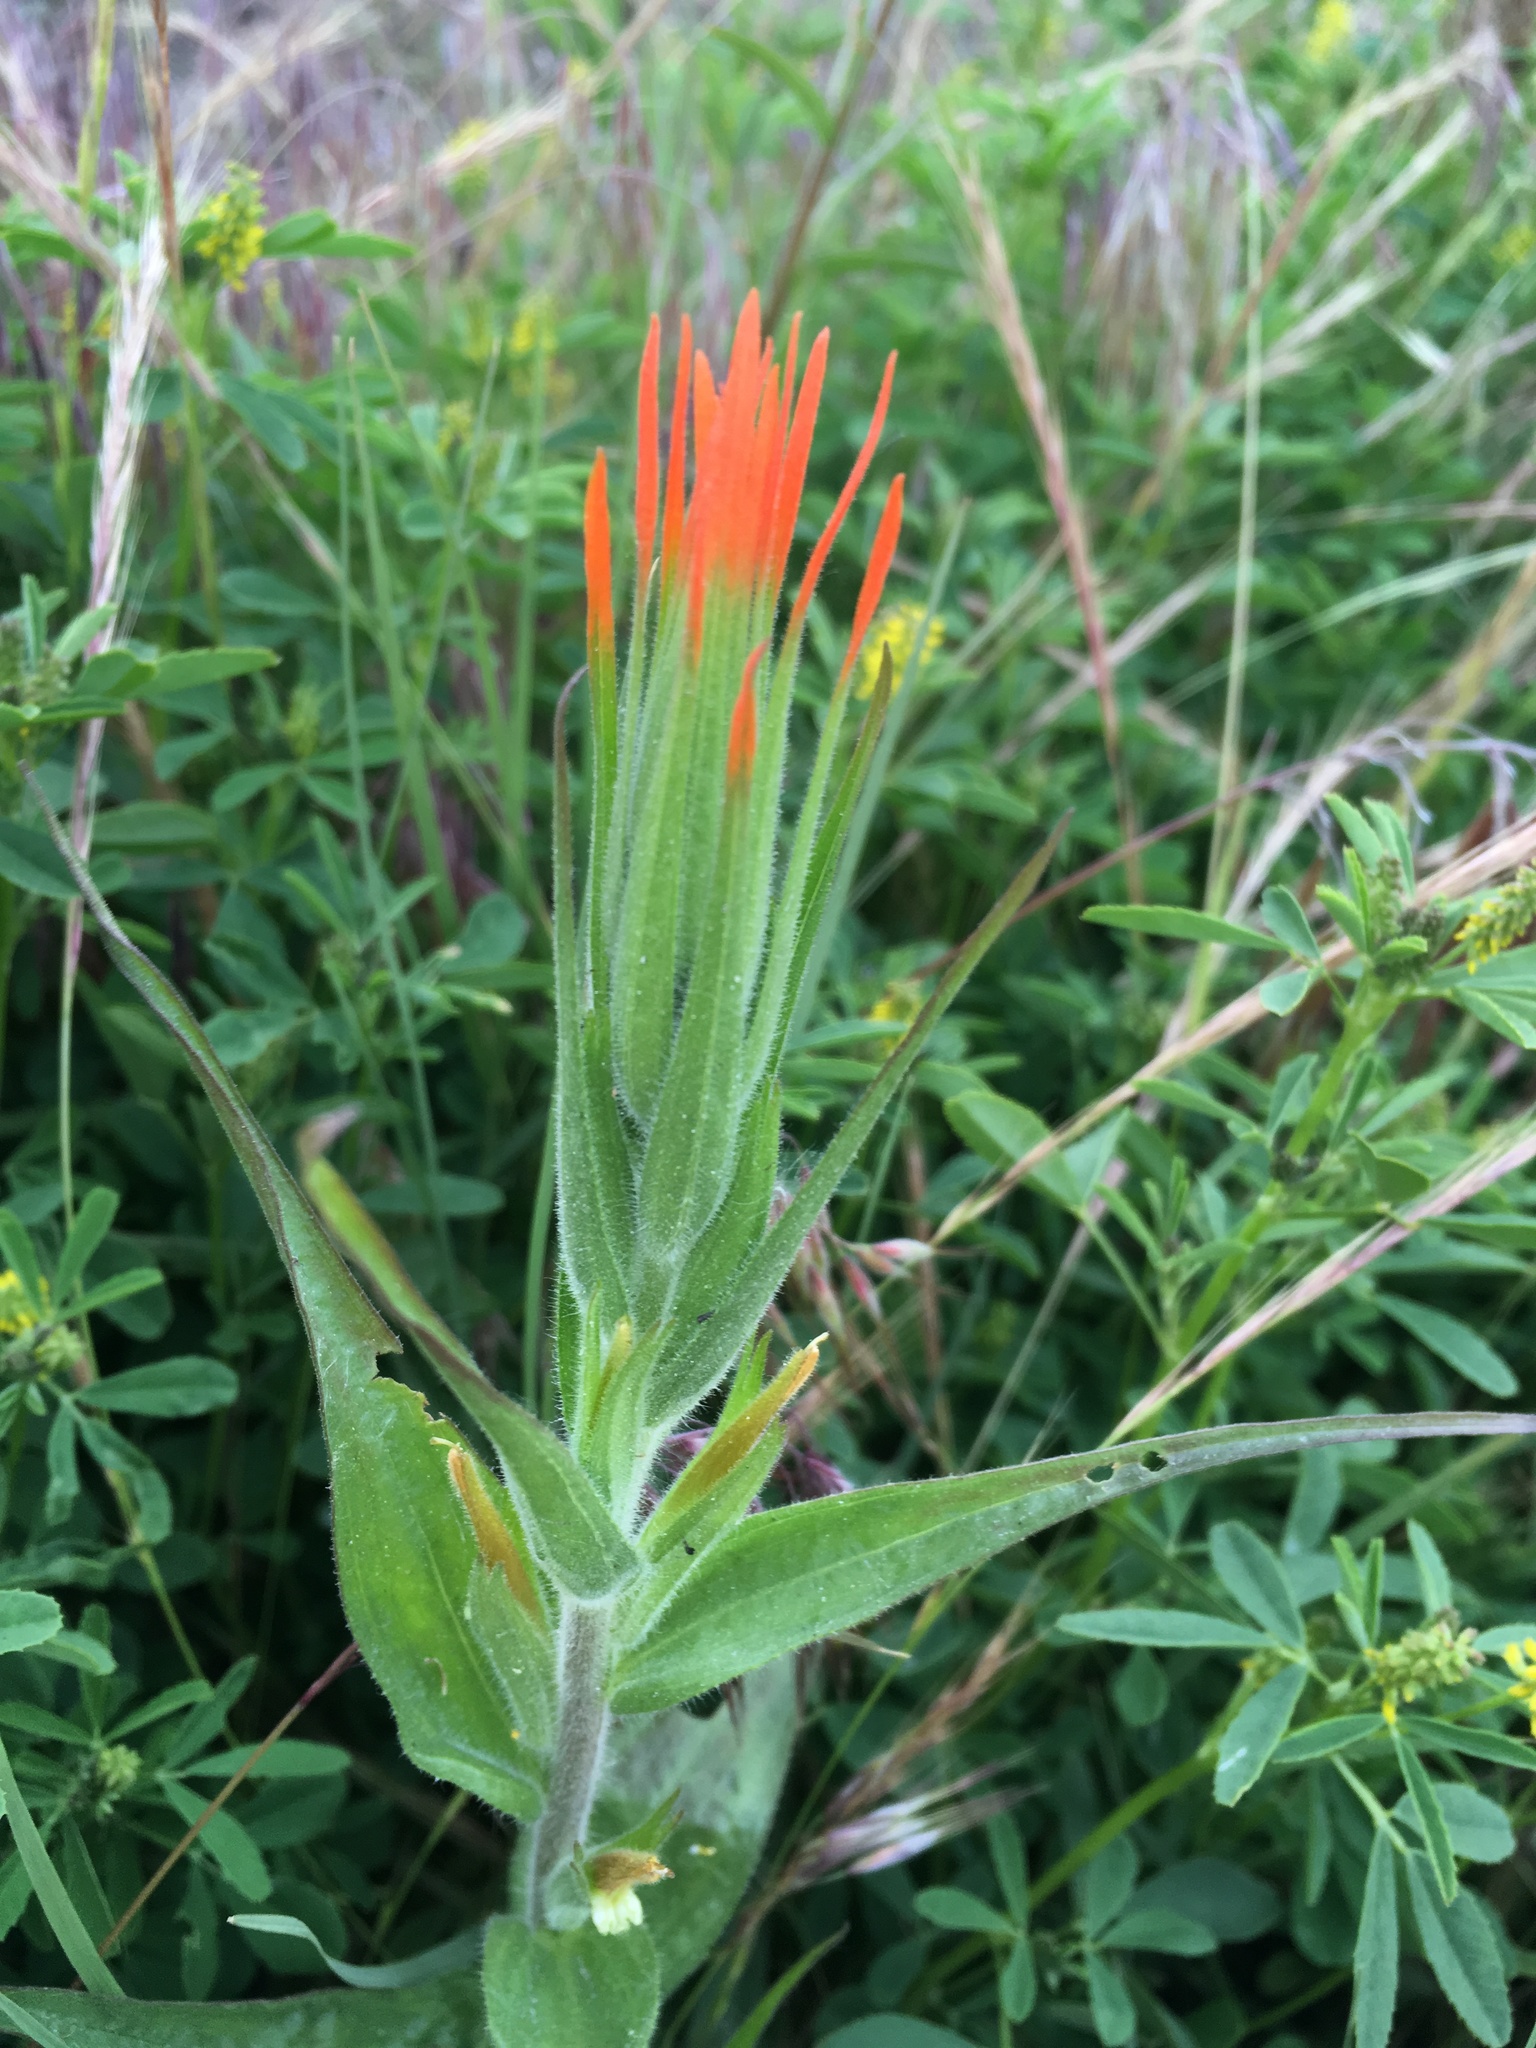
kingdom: Plantae
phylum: Tracheophyta
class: Magnoliopsida
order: Lamiales
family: Orobanchaceae
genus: Castilleja
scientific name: Castilleja minor
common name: Seep paintbrush
